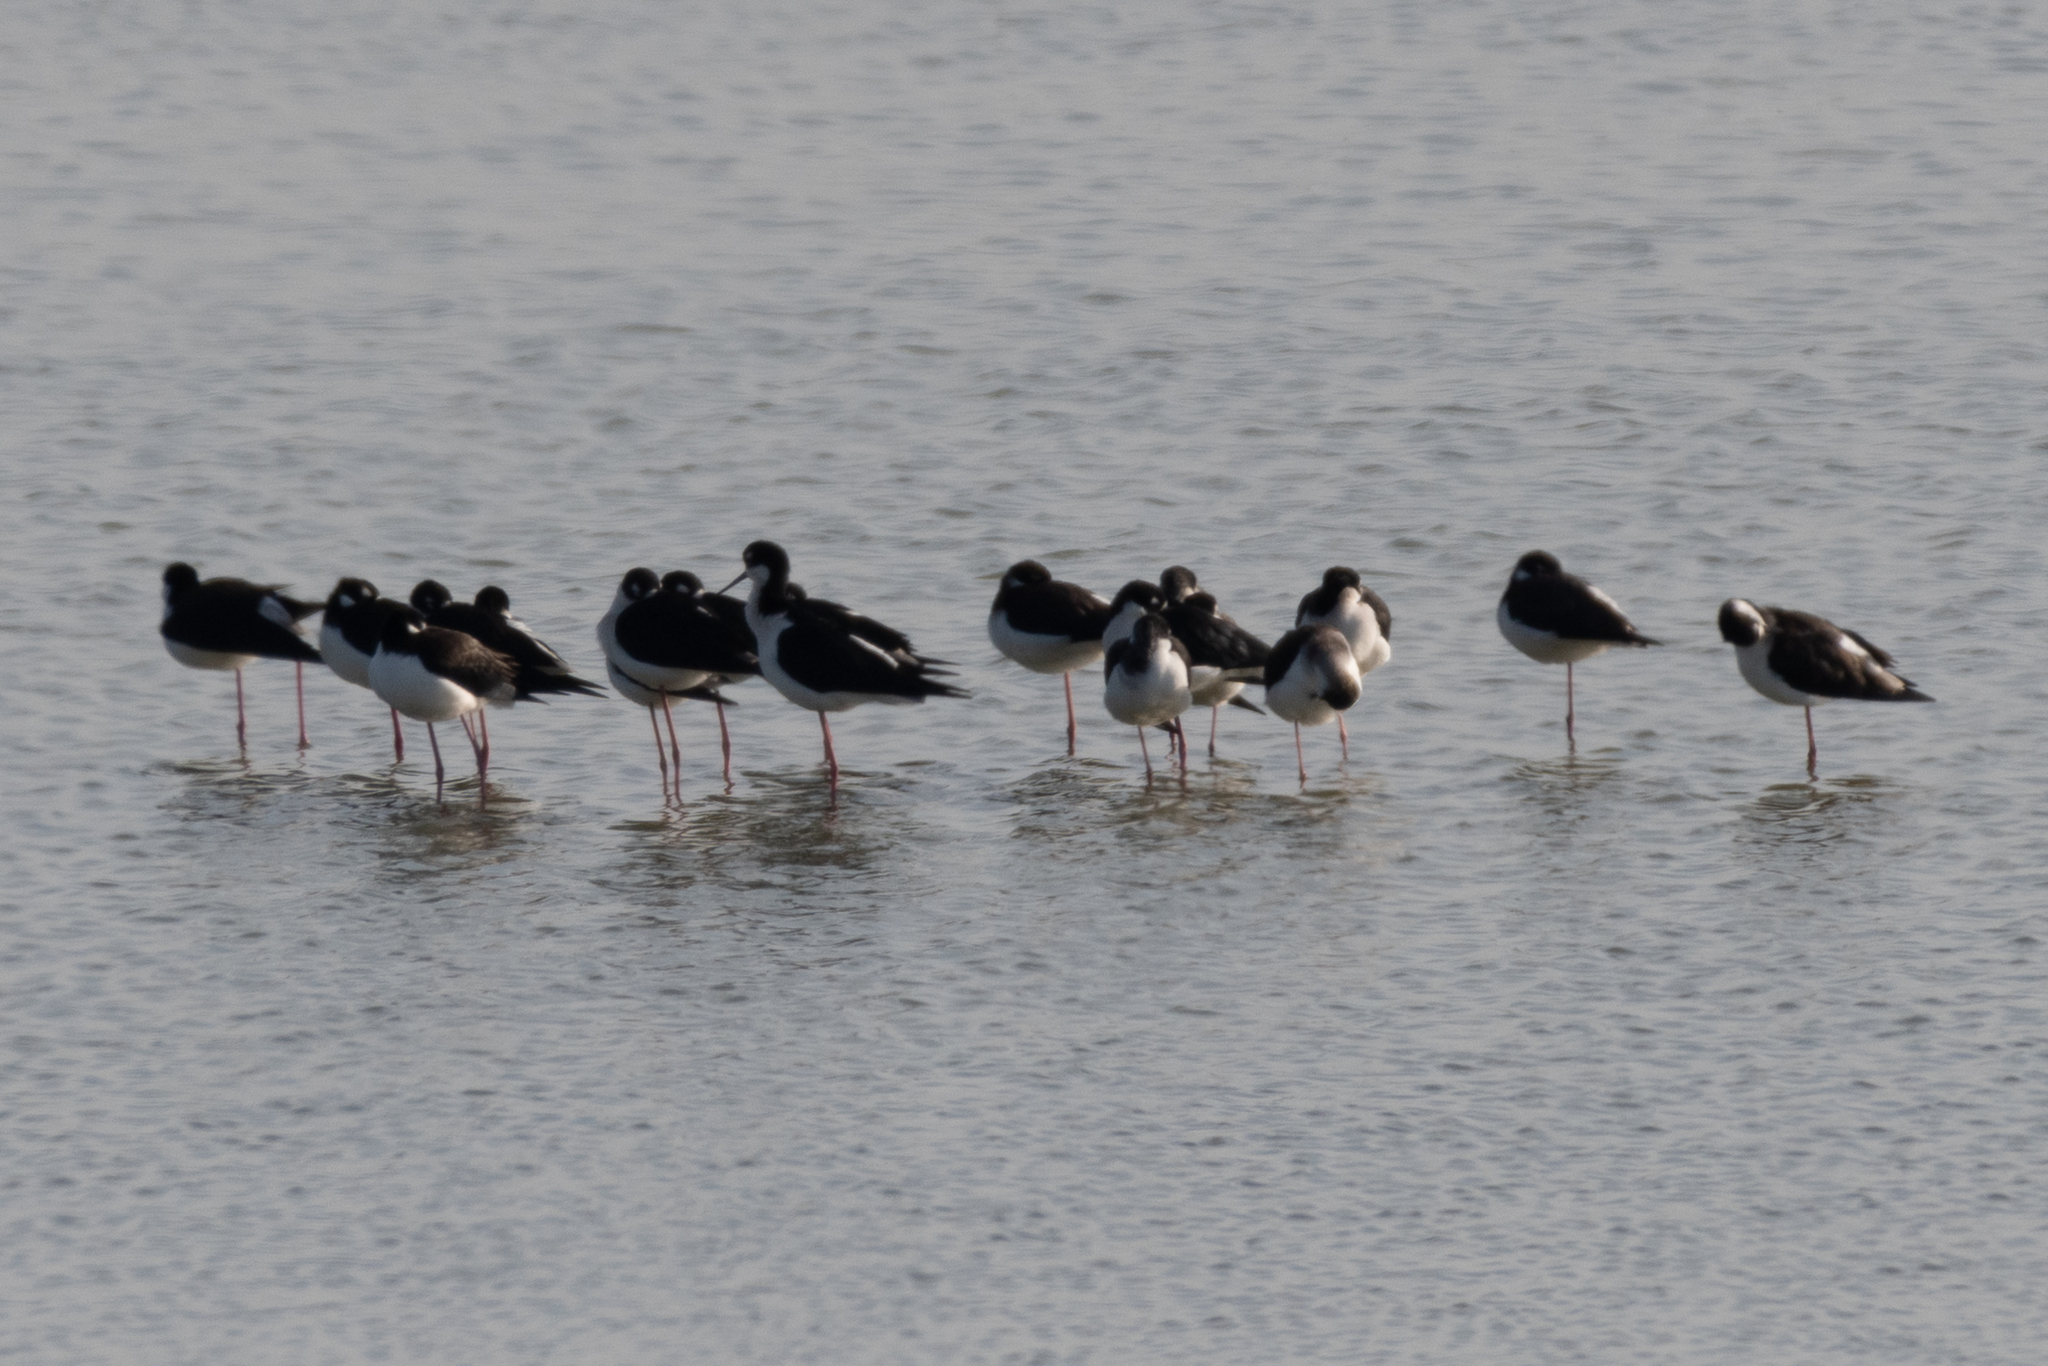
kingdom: Animalia
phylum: Chordata
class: Aves
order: Charadriiformes
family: Recurvirostridae
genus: Himantopus
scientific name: Himantopus mexicanus
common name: Black-necked stilt
